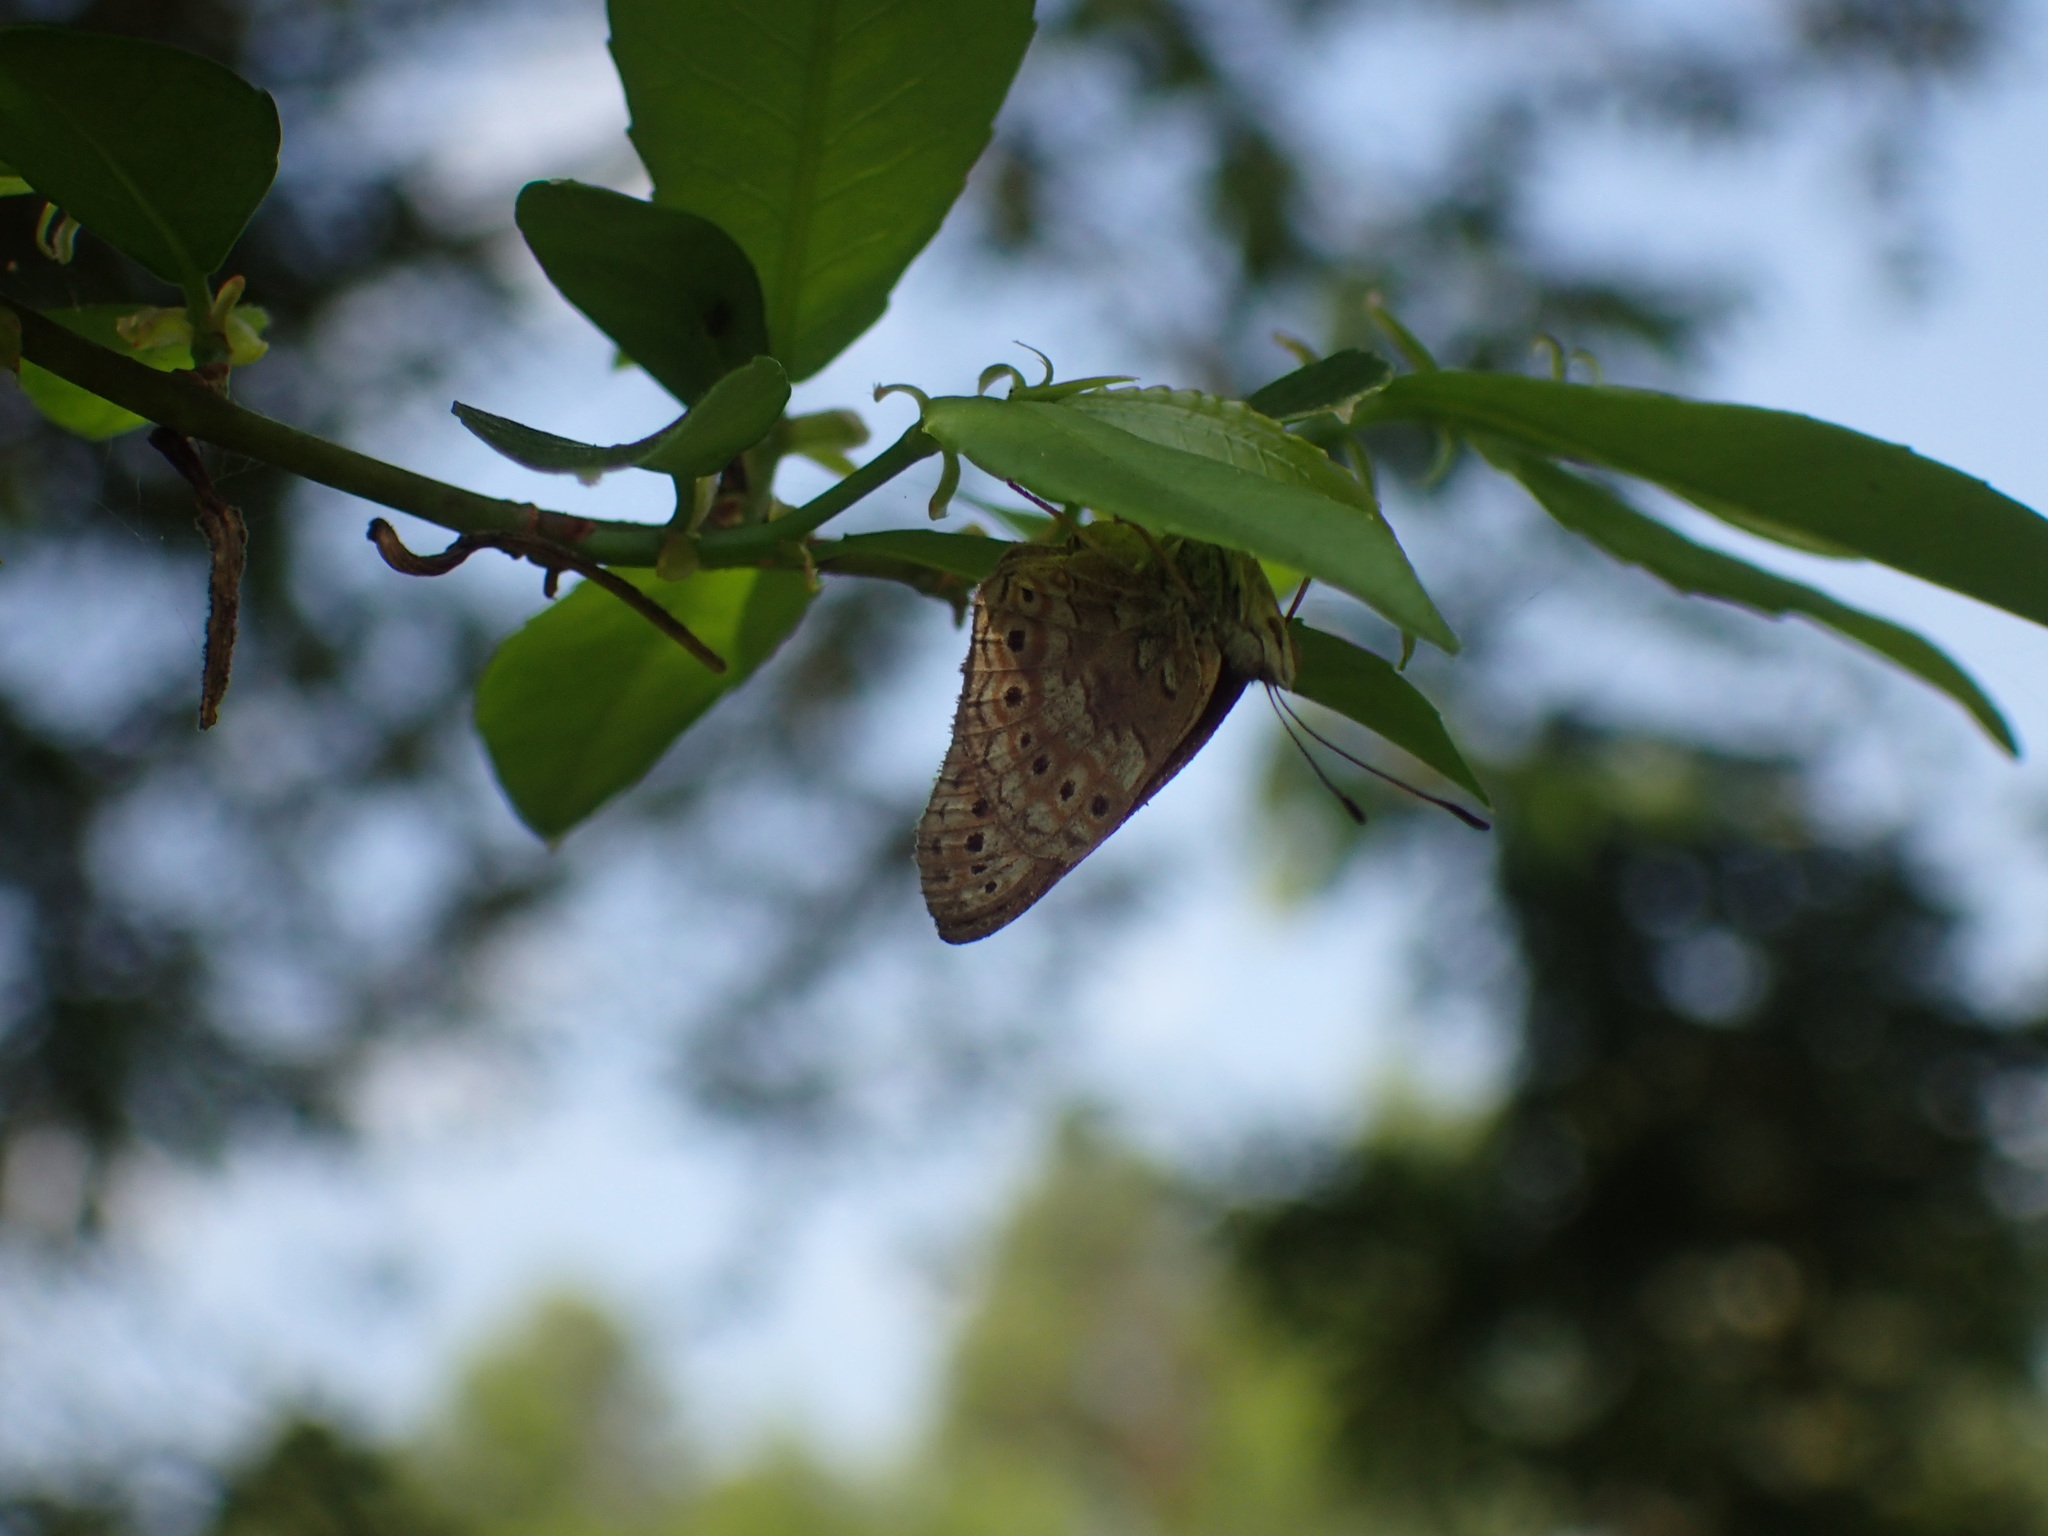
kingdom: Animalia
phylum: Arthropoda
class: Insecta
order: Lepidoptera
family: Nymphalidae
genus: Asterope
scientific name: Asterope boisduvali
